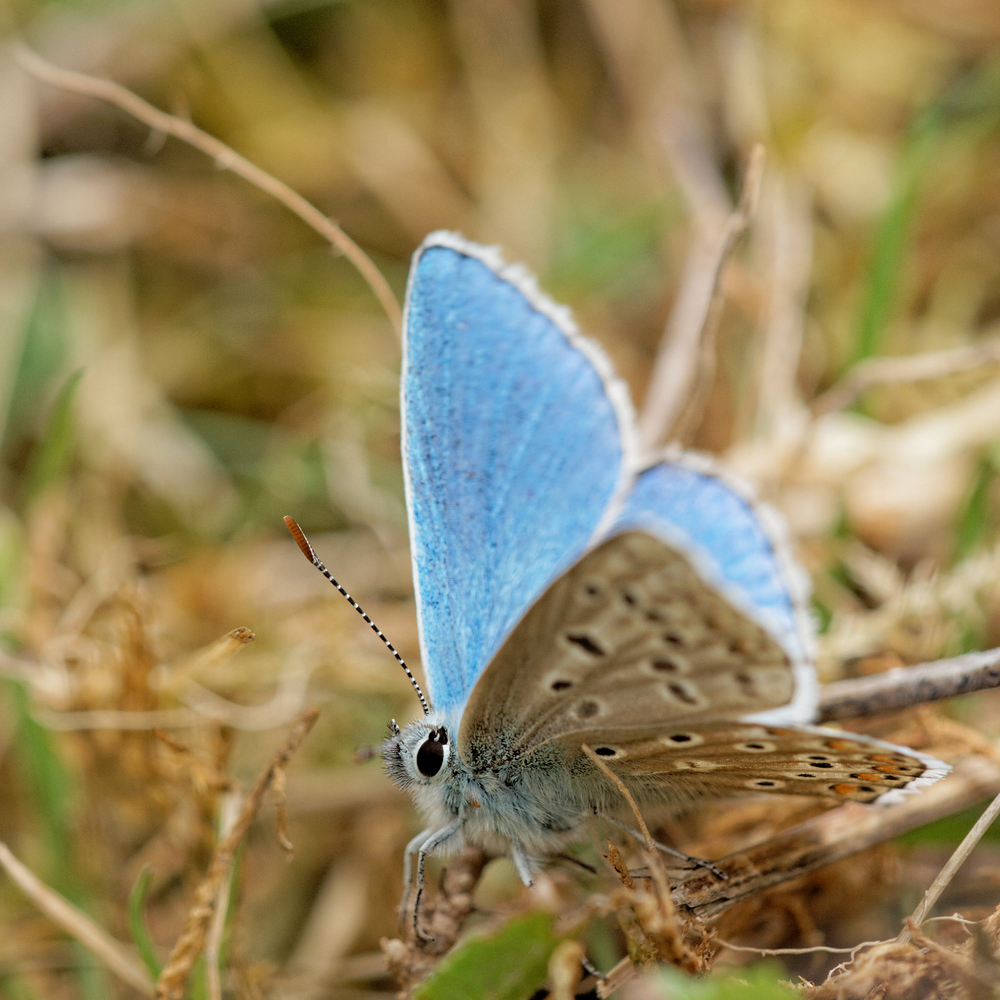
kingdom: Animalia
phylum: Arthropoda
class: Insecta
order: Lepidoptera
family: Lycaenidae
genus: Lysandra
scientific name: Lysandra bellargus
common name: Adonis blue
